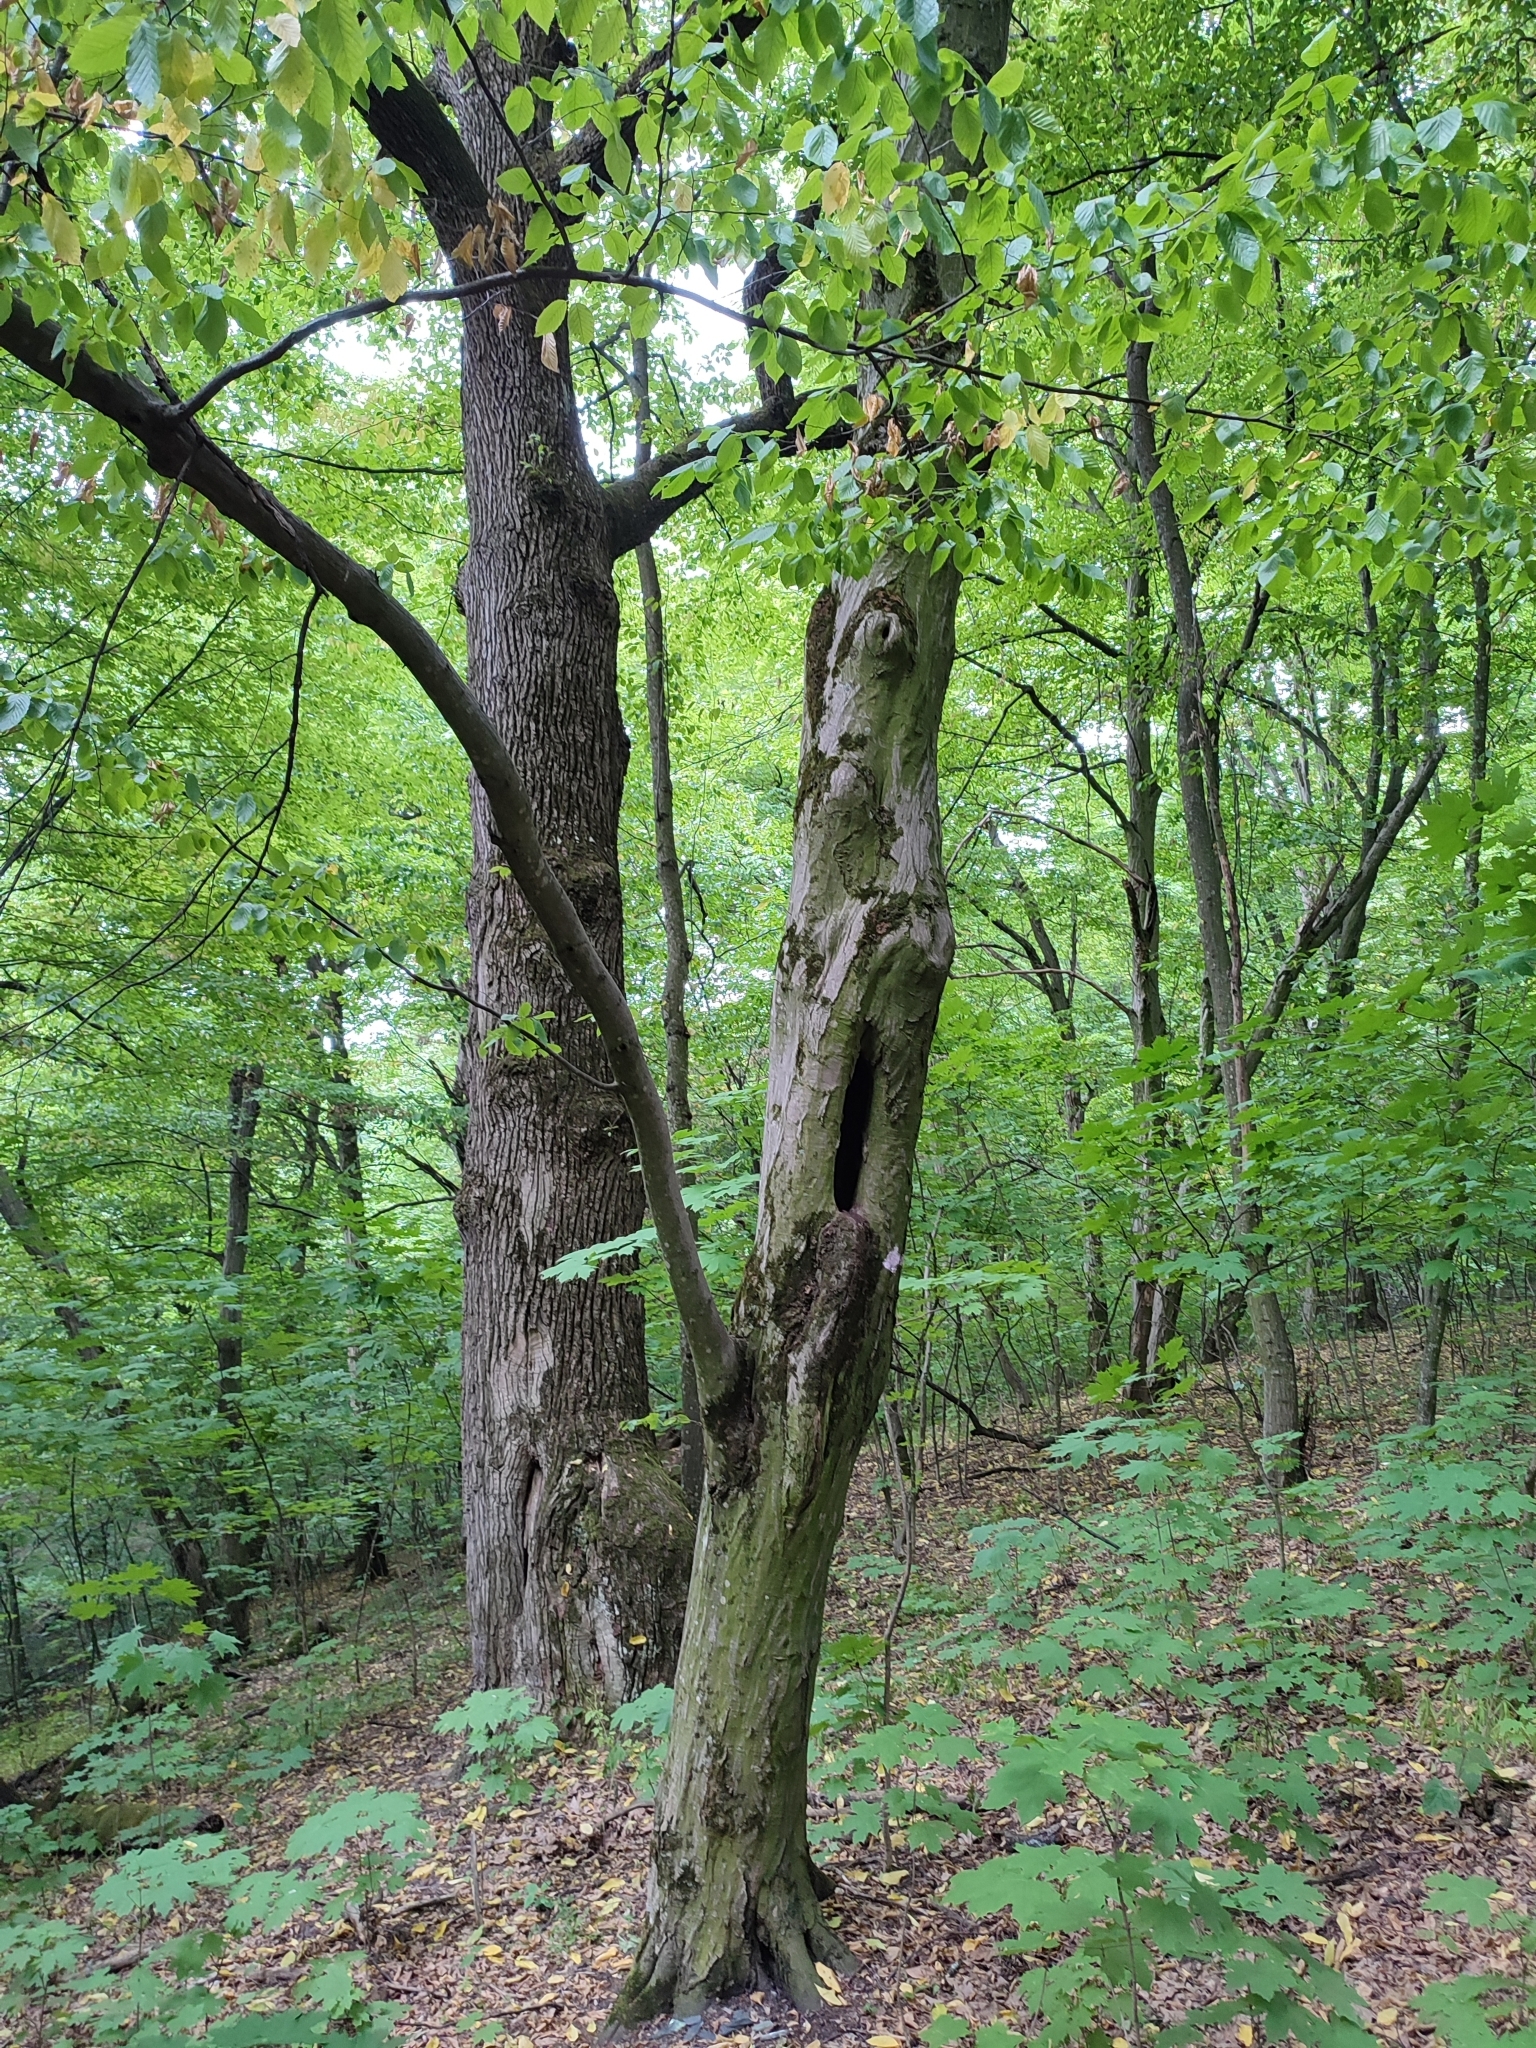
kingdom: Plantae
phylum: Tracheophyta
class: Magnoliopsida
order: Fagales
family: Betulaceae
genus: Carpinus
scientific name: Carpinus betulus
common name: Hornbeam
